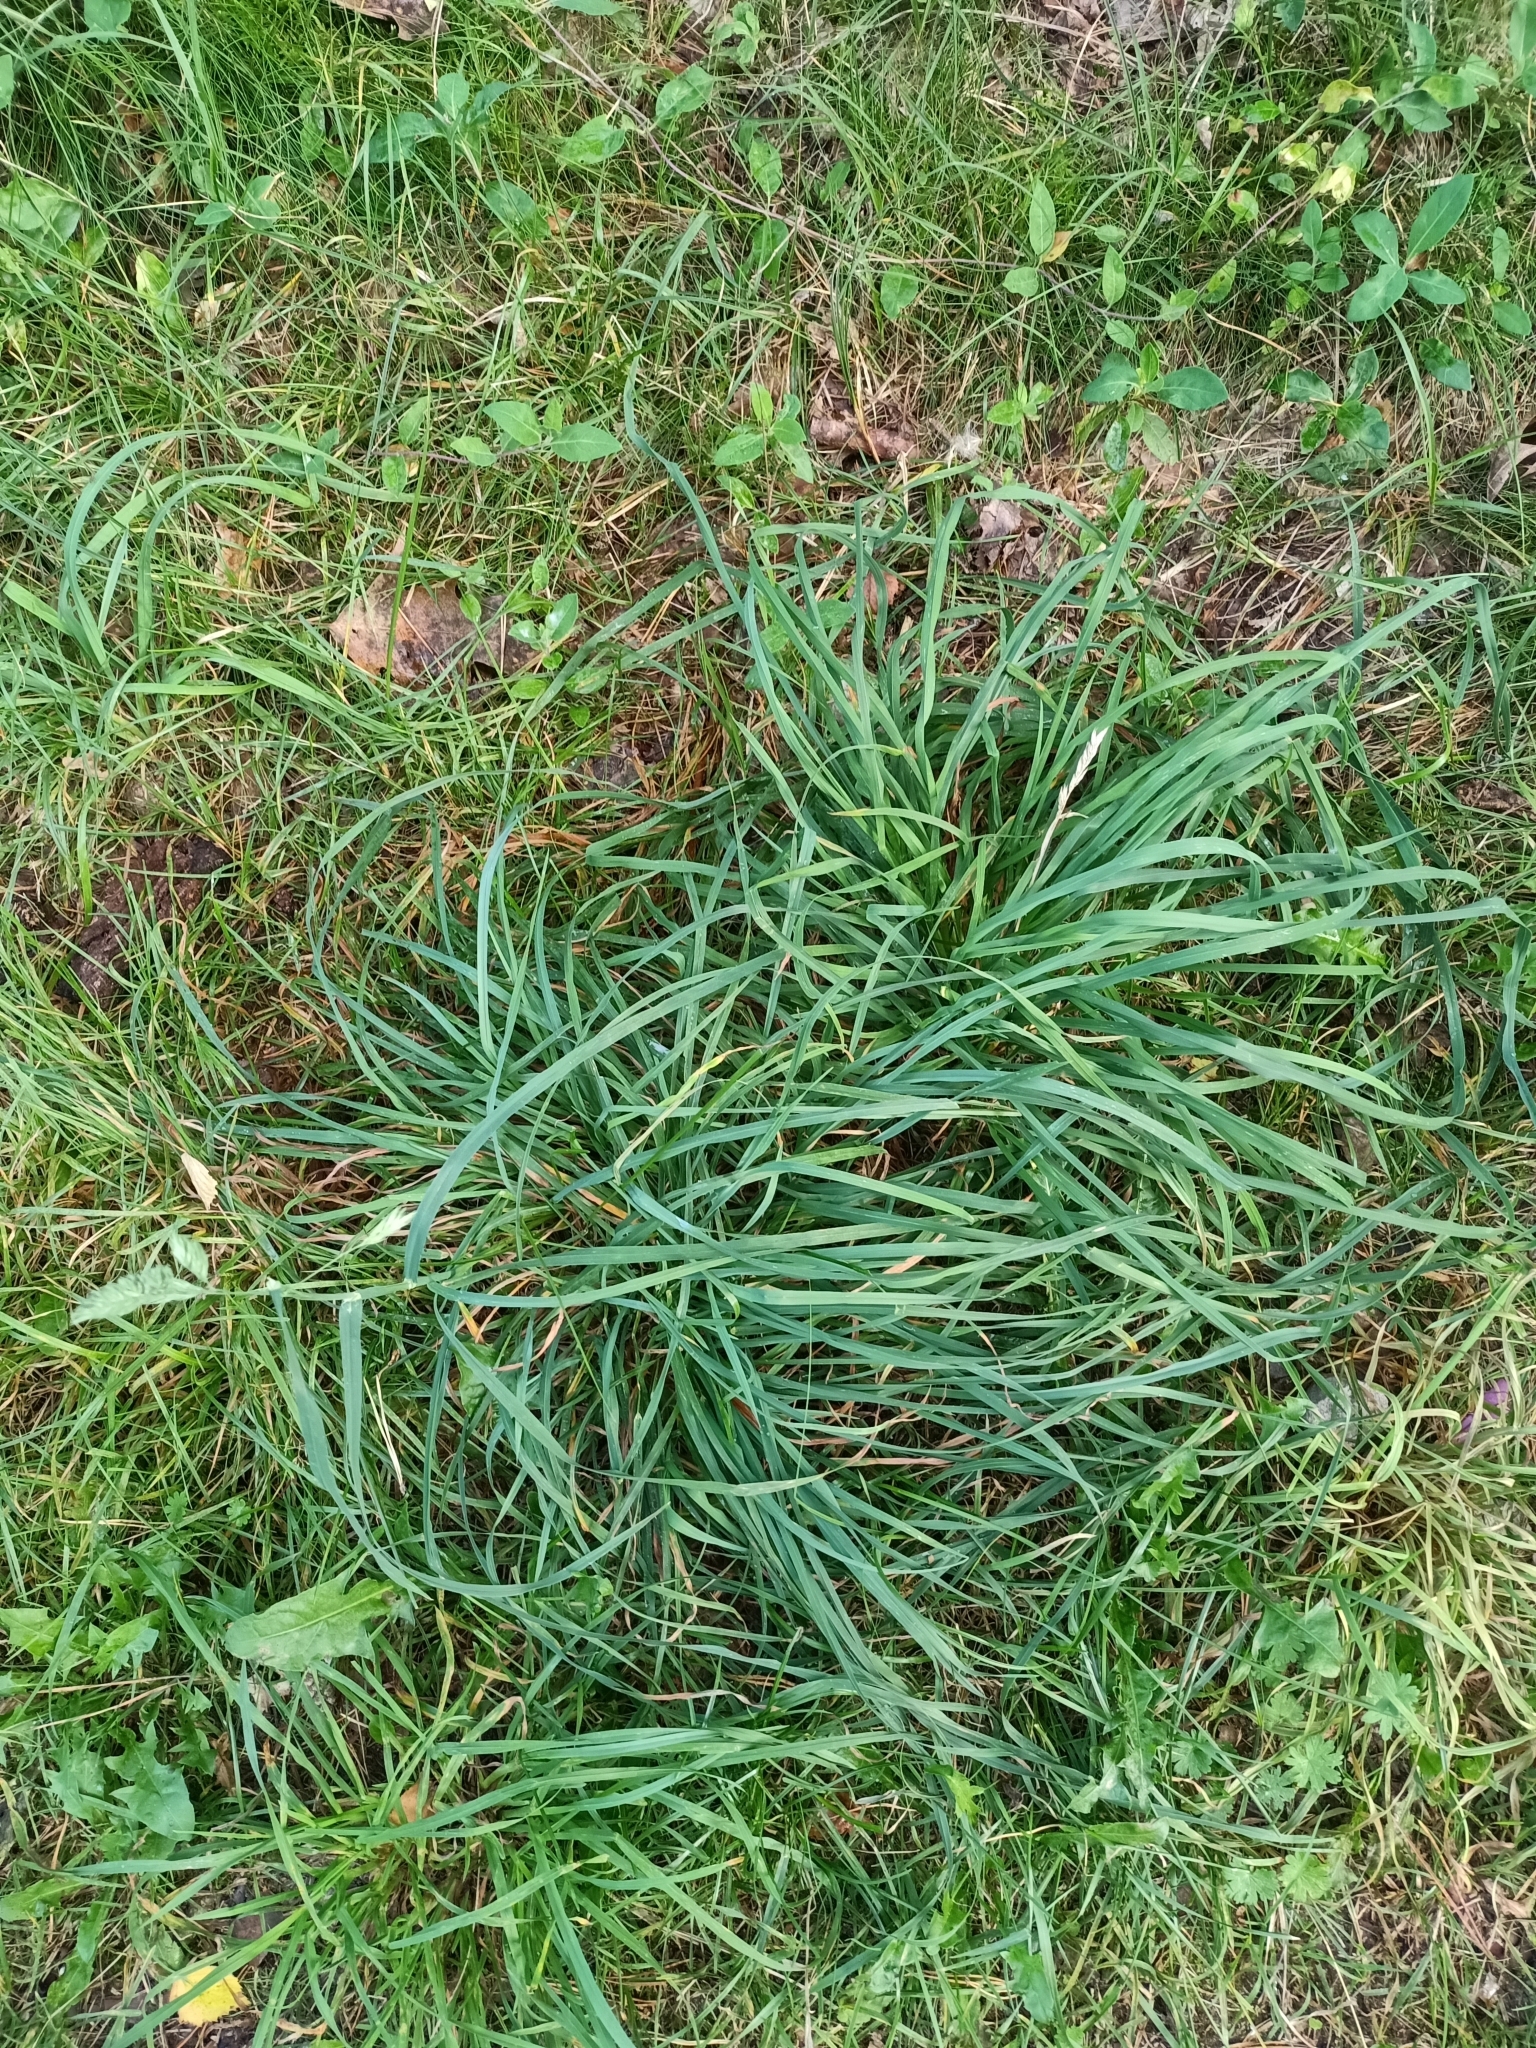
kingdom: Plantae
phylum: Tracheophyta
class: Liliopsida
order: Poales
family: Poaceae
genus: Dactylis
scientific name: Dactylis glomerata
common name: Orchardgrass
